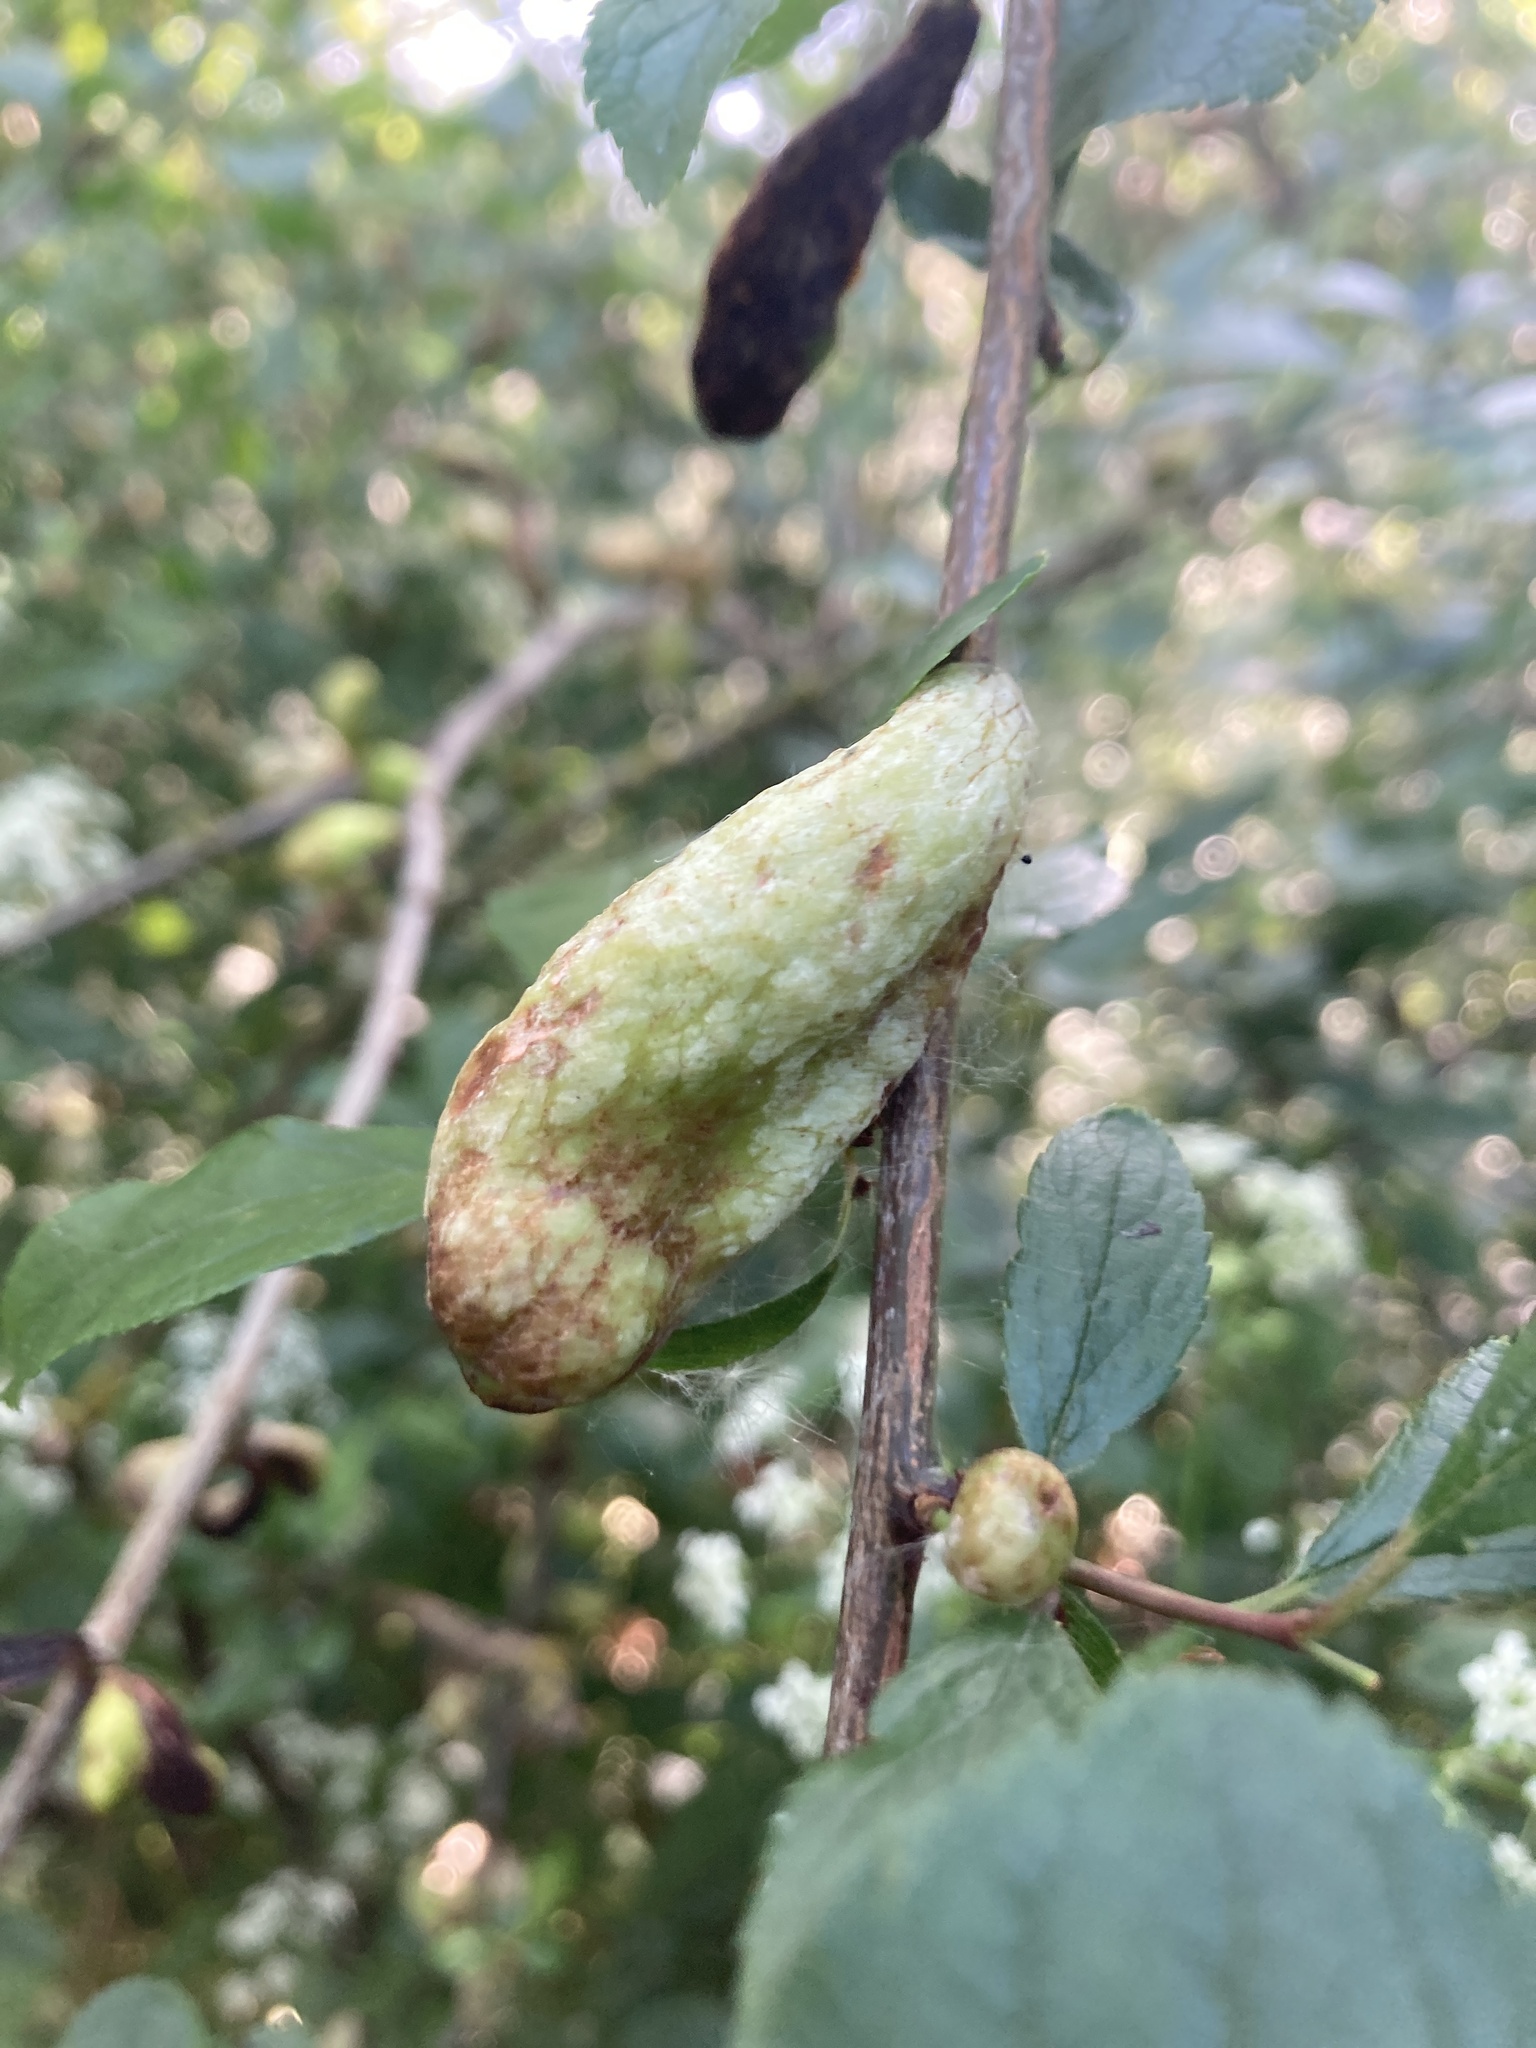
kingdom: Fungi
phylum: Ascomycota
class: Taphrinomycetes
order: Taphrinales
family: Taphrinaceae
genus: Taphrina
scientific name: Taphrina pruni
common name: Pocket plum
